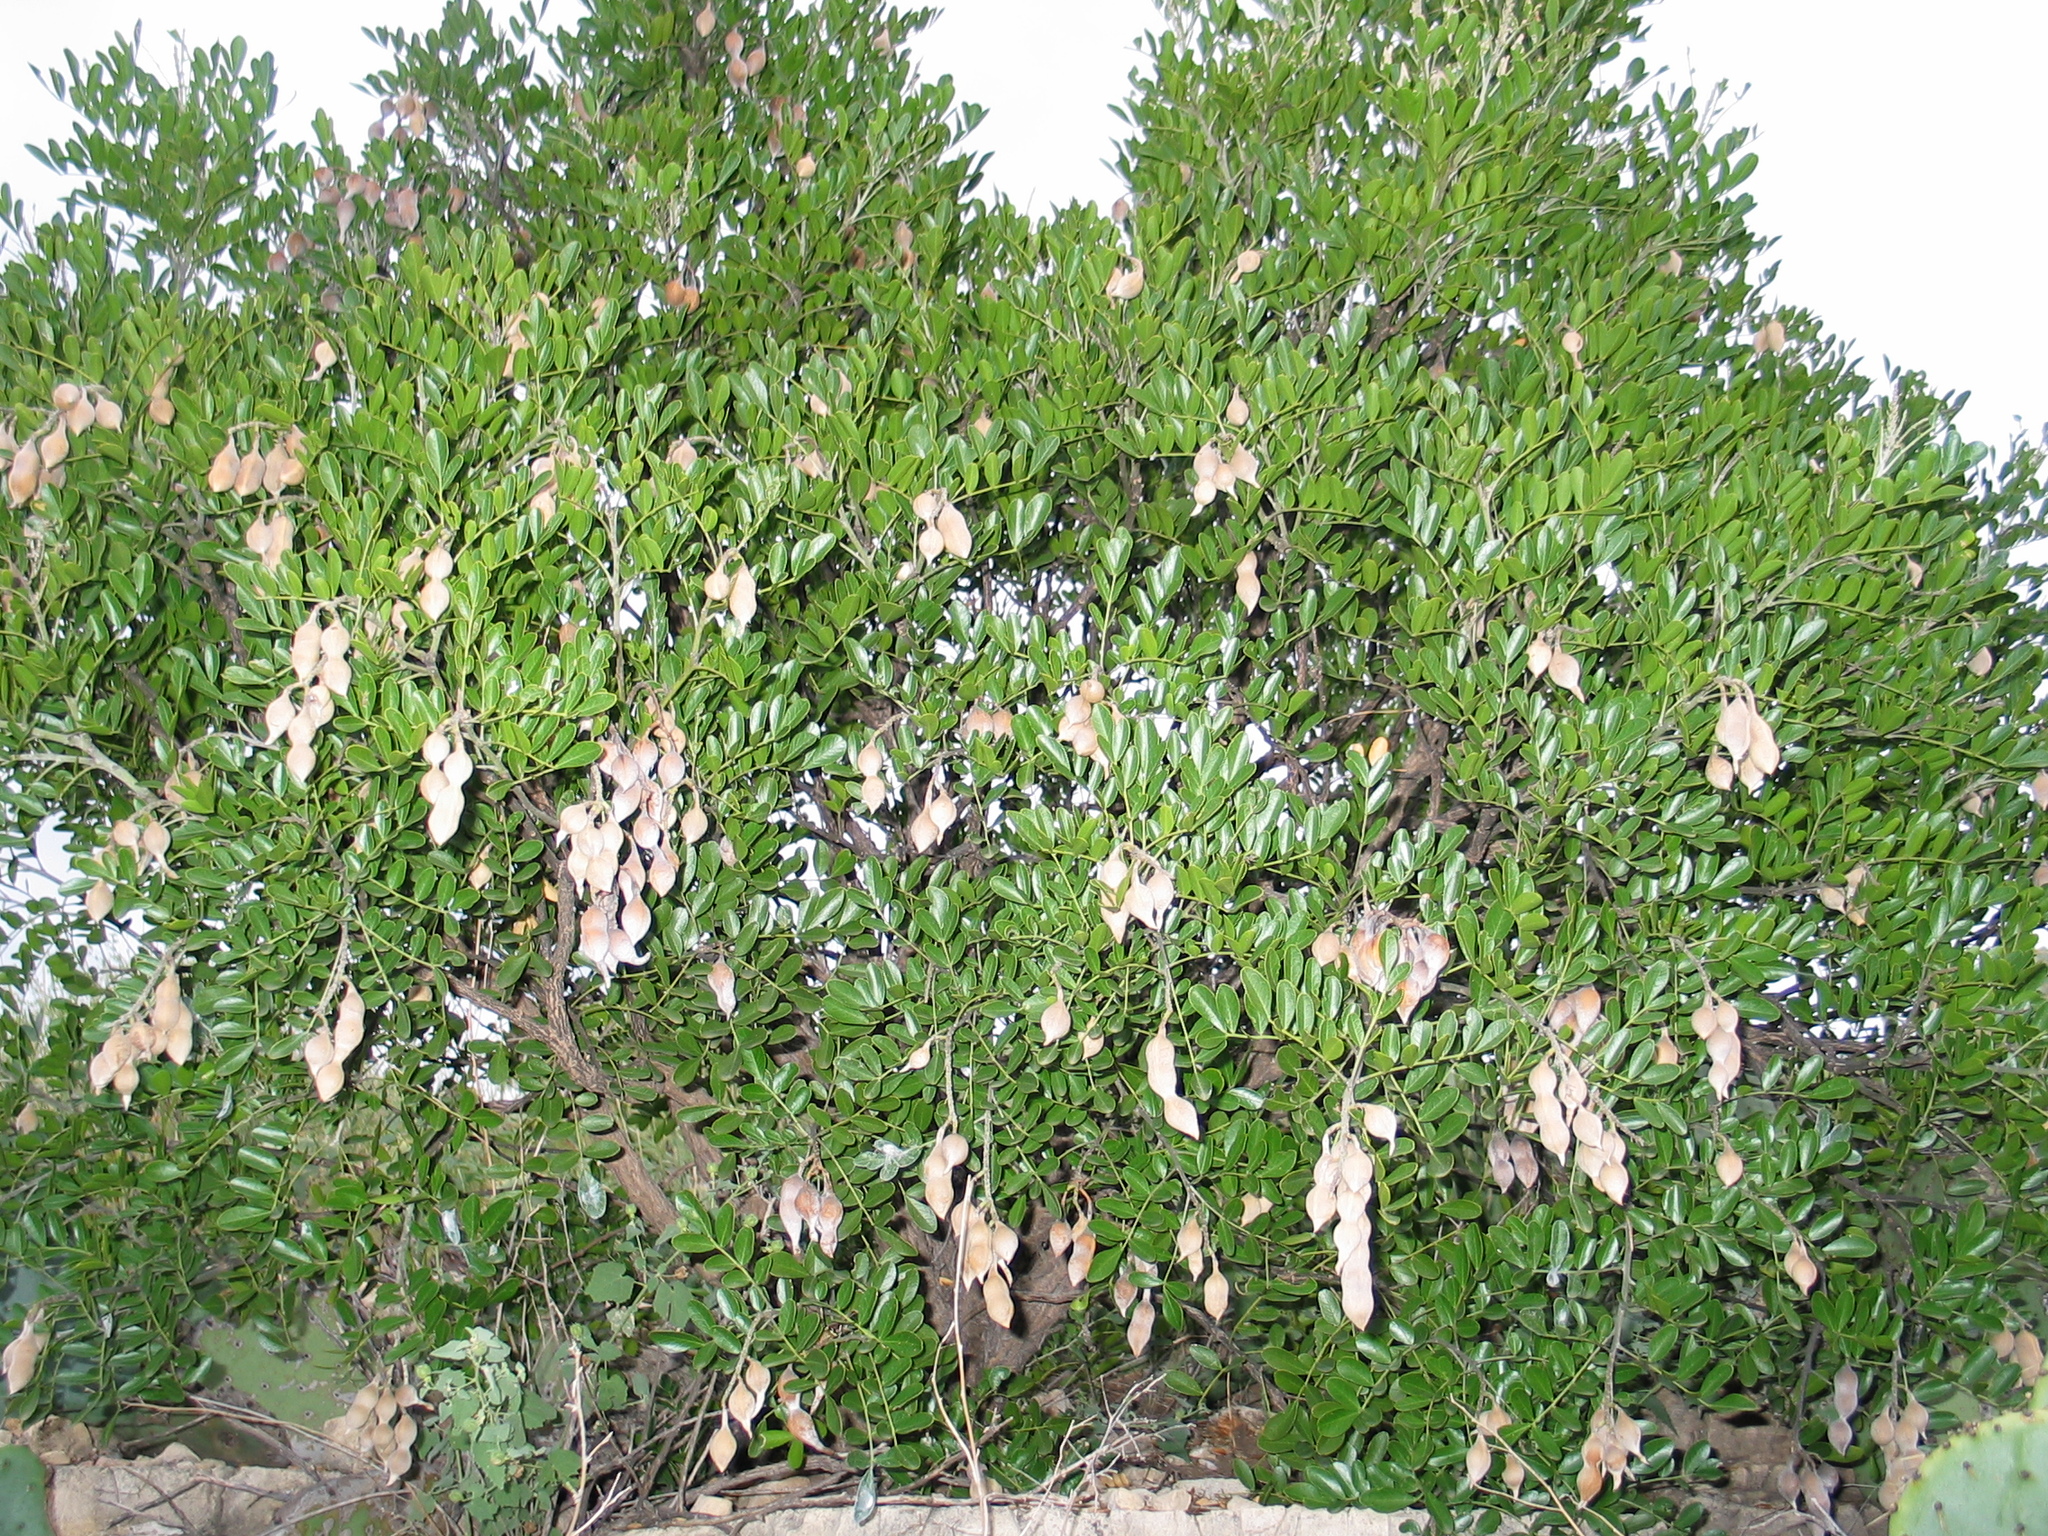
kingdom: Plantae
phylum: Tracheophyta
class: Magnoliopsida
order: Fabales
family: Fabaceae
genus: Dermatophyllum
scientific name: Dermatophyllum secundiflorum
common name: Texas-mountain-laurel
